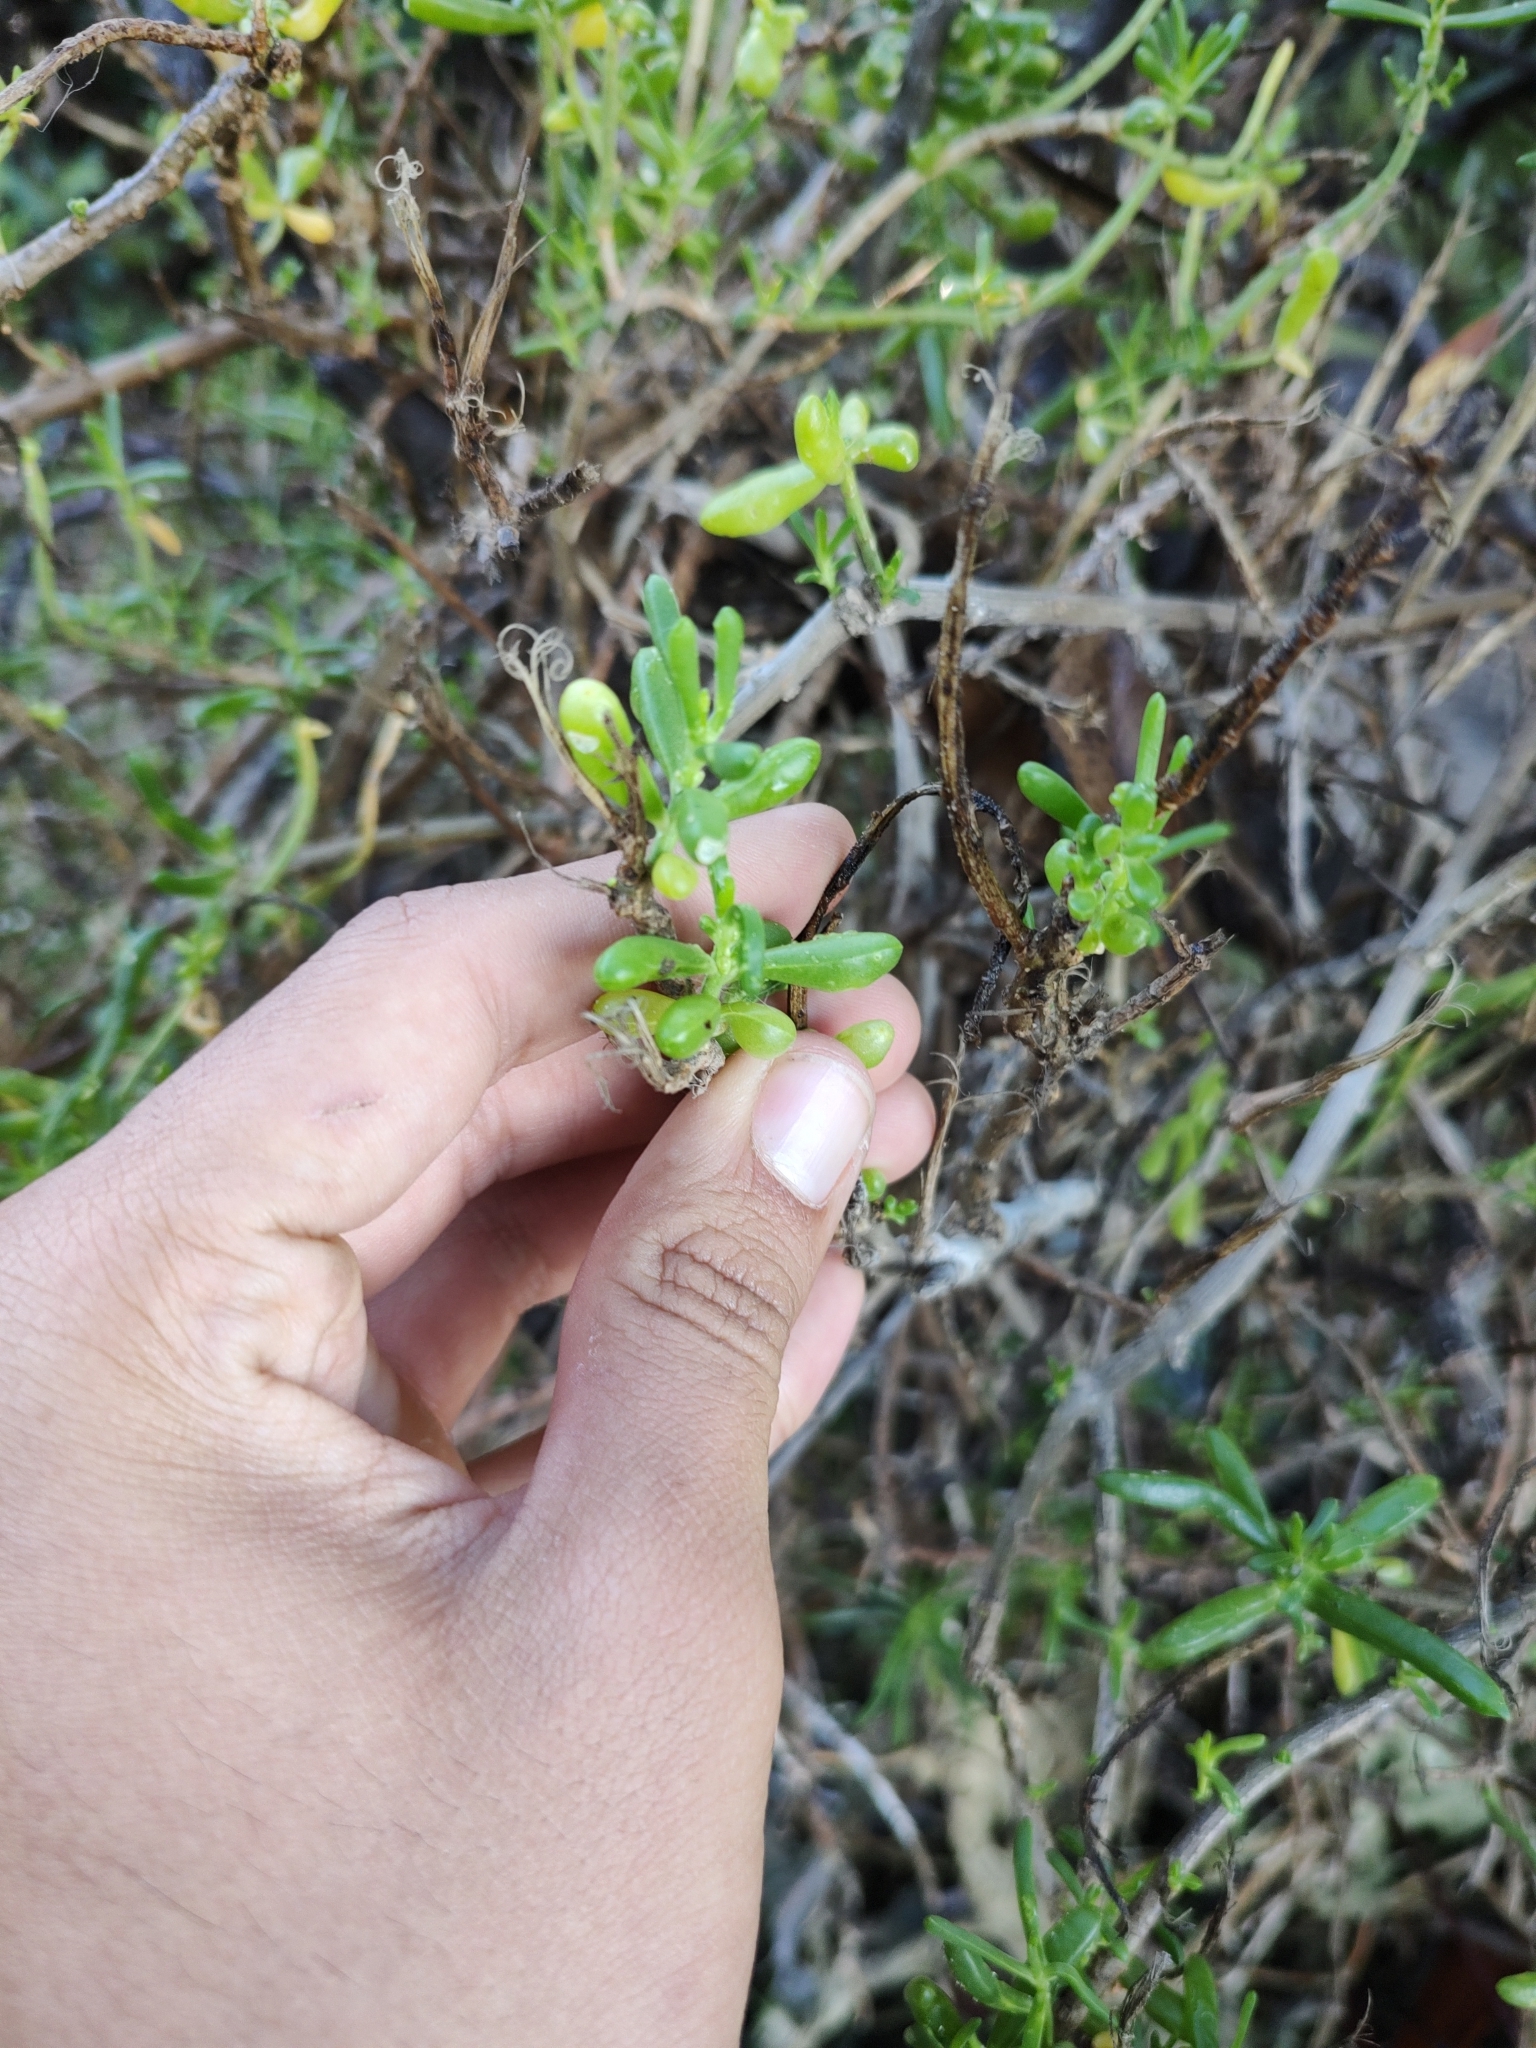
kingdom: Plantae
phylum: Tracheophyta
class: Magnoliopsida
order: Brassicales
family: Bataceae
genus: Batis
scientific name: Batis maritima
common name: Turtleweed
